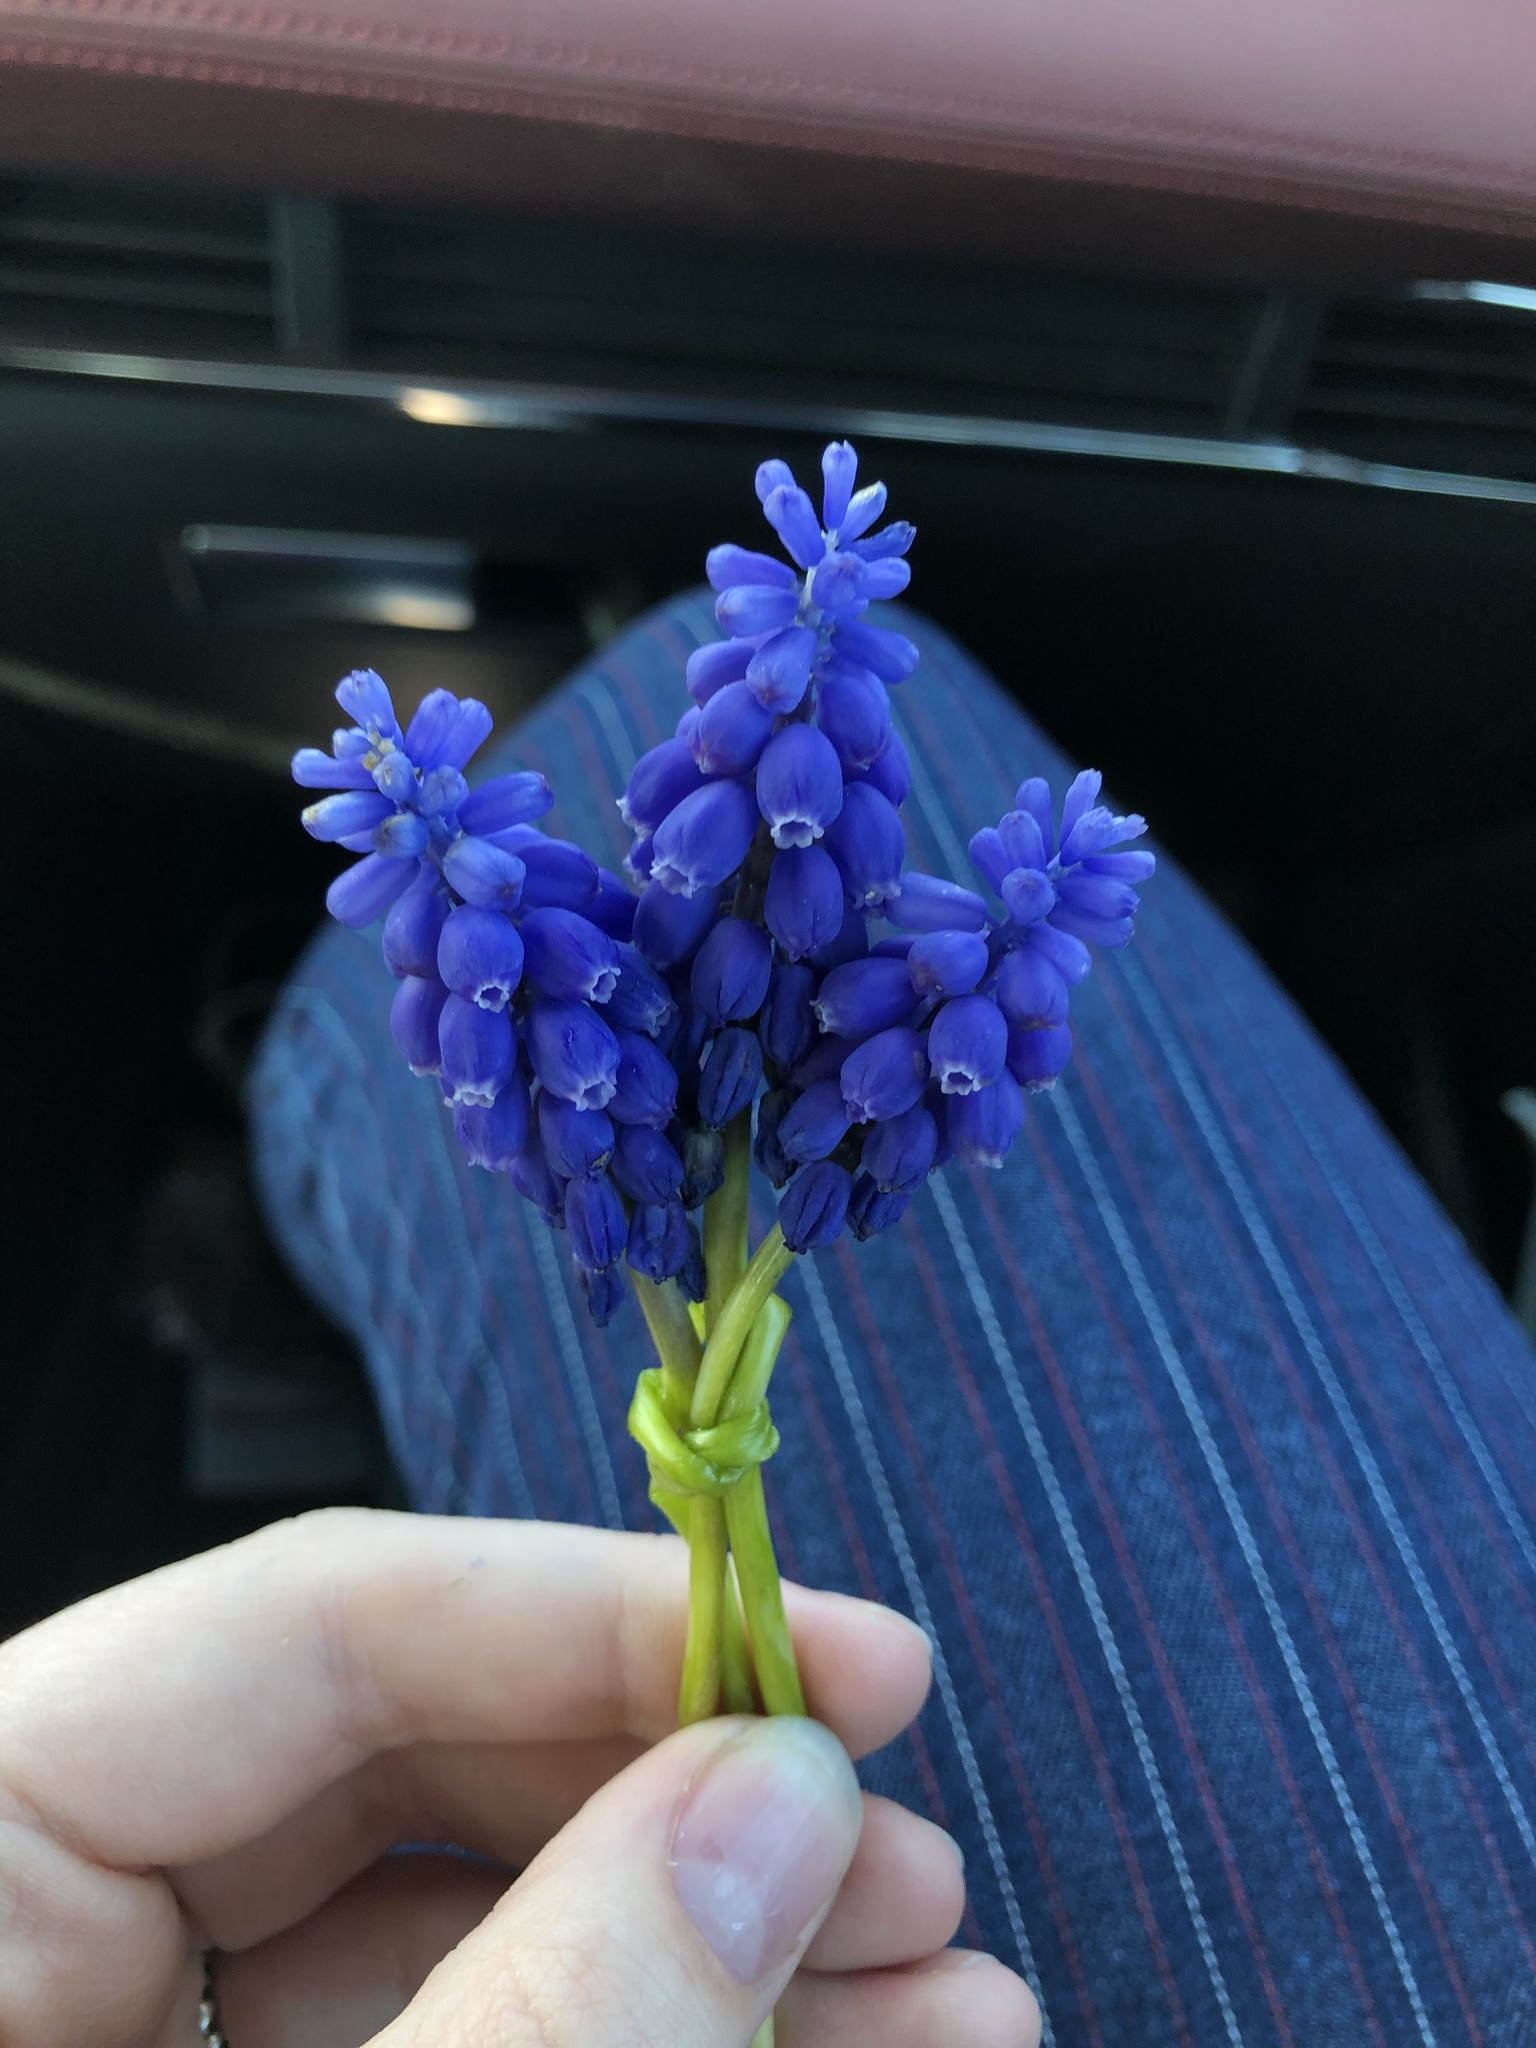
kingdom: Plantae
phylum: Tracheophyta
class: Liliopsida
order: Asparagales
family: Asparagaceae
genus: Muscari
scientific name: Muscari botryoides
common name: Compact grape-hyacinth
